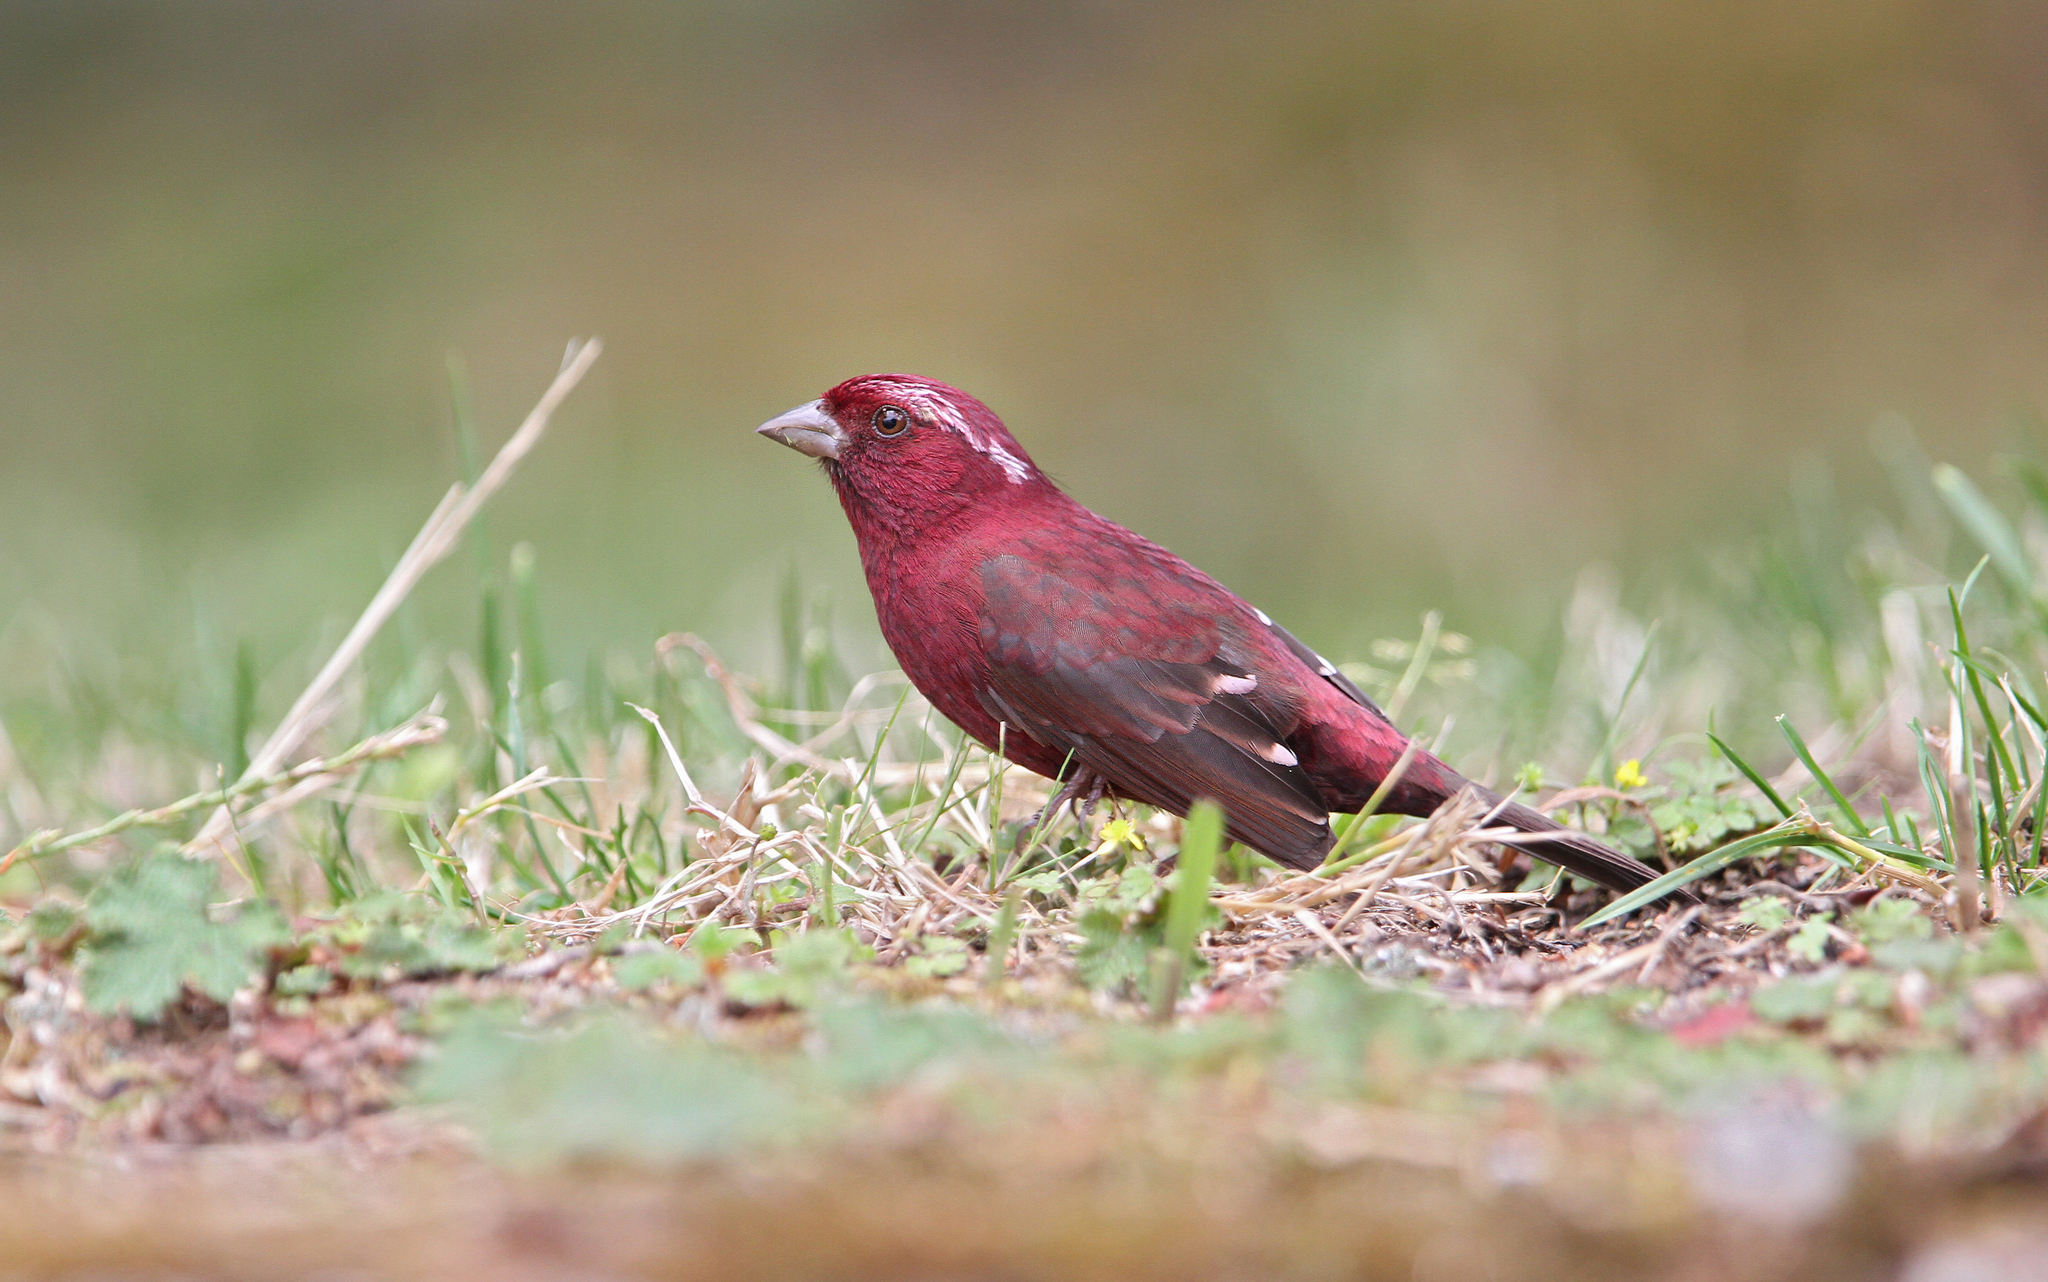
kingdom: Animalia
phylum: Chordata
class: Aves
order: Passeriformes
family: Fringillidae
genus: Carpodacus
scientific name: Carpodacus formosanus
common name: Taiwan rosefinch
